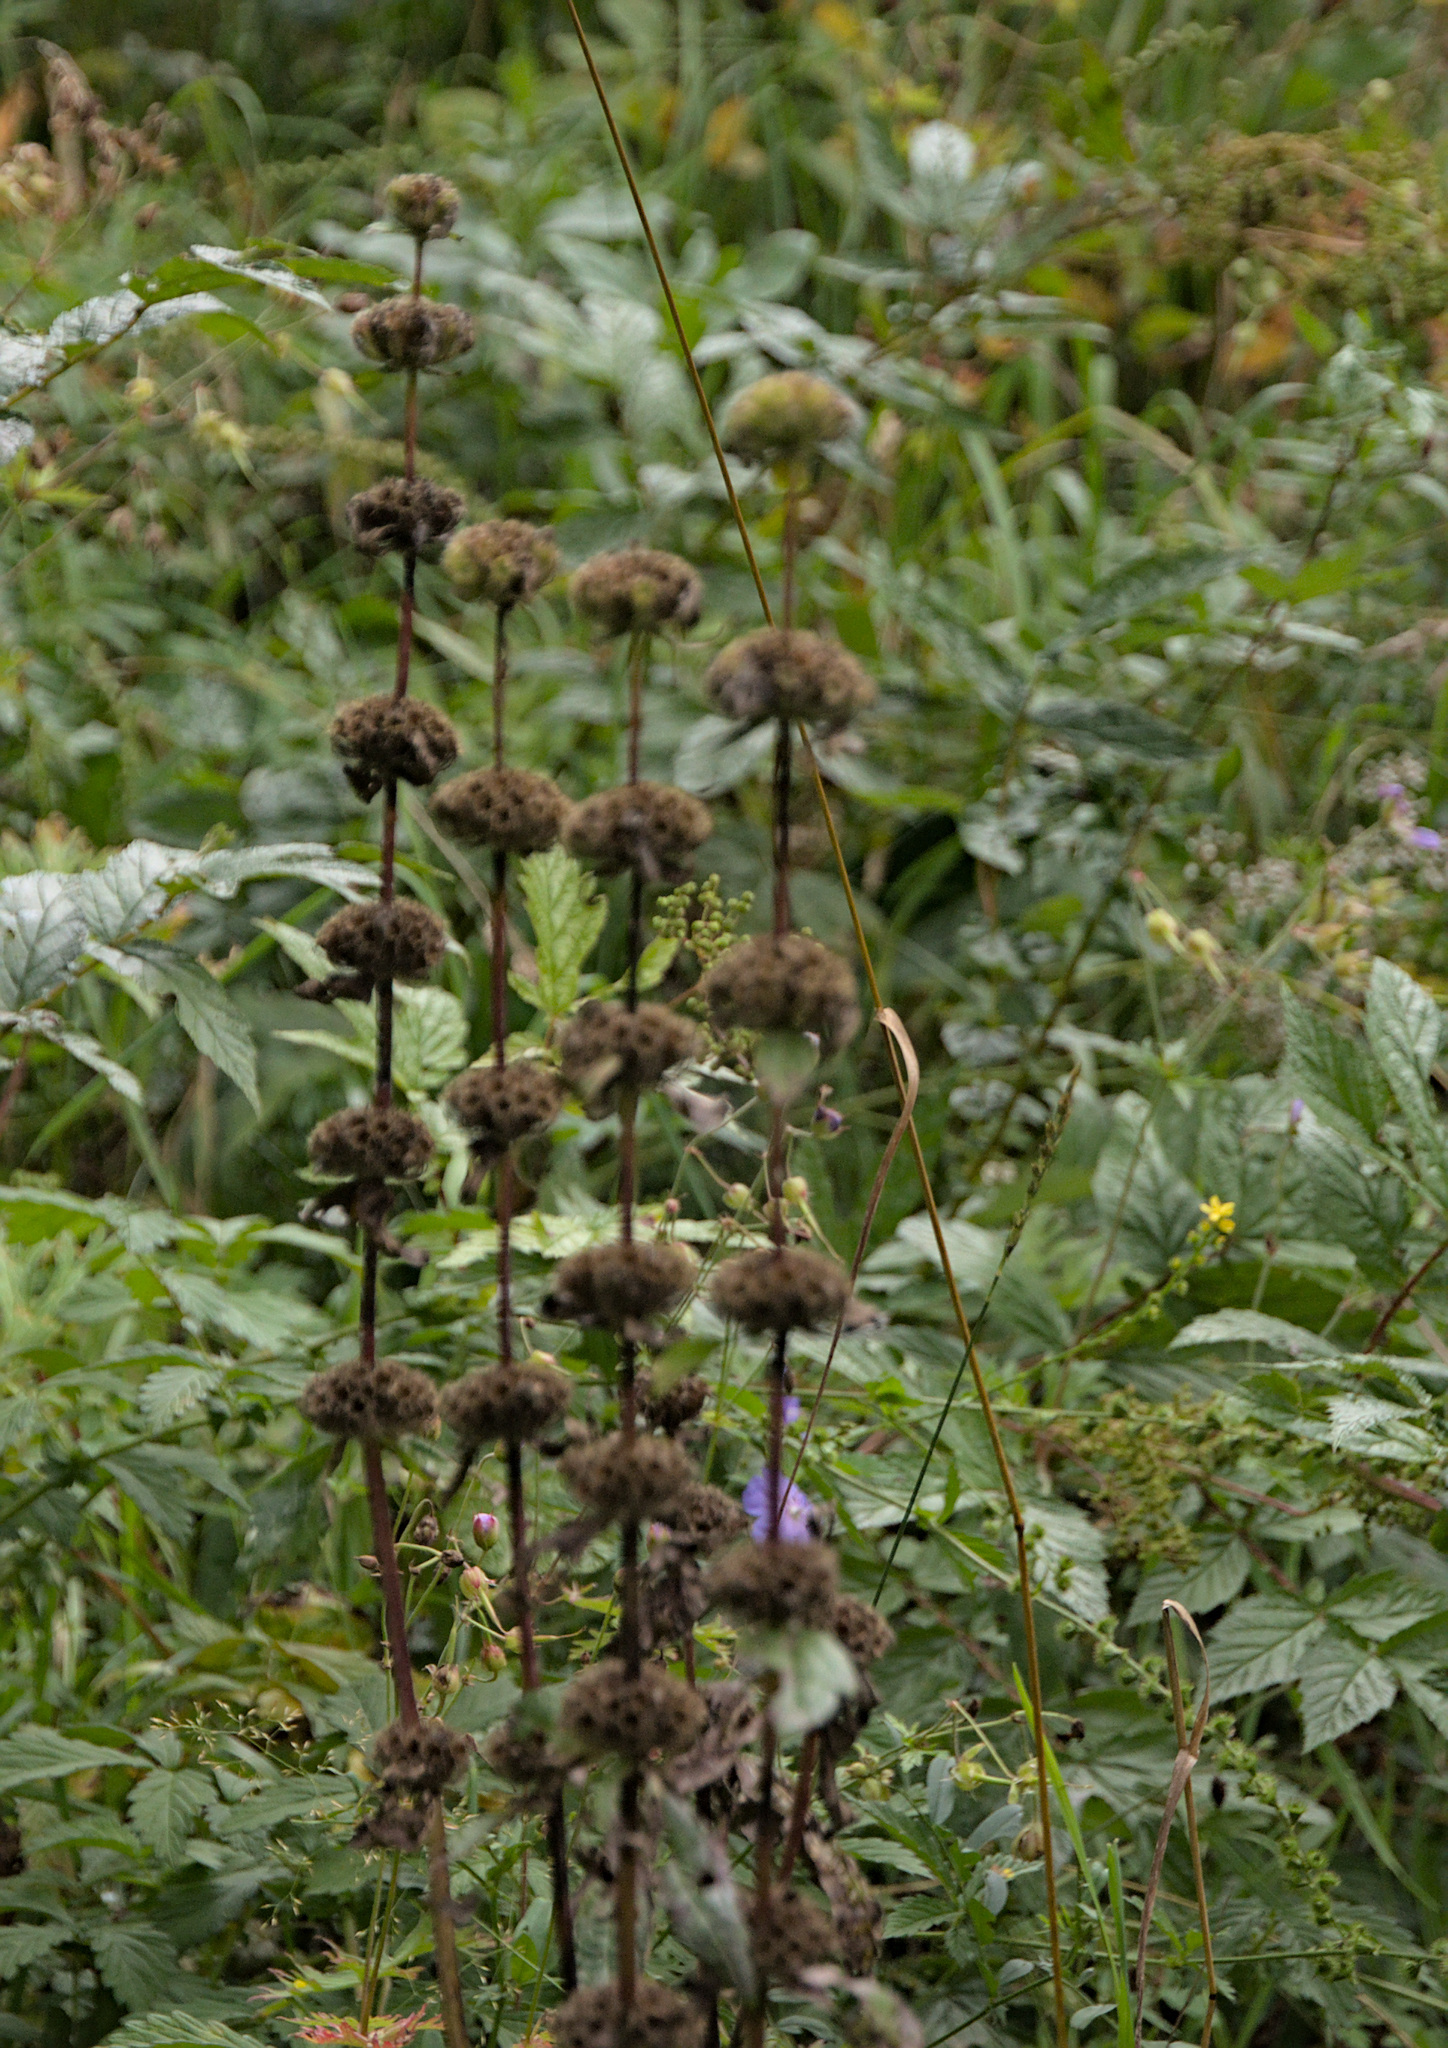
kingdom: Plantae
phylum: Tracheophyta
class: Magnoliopsida
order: Lamiales
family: Lamiaceae
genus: Phlomoides
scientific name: Phlomoides tuberosa
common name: Tuberous jerusalem sage
